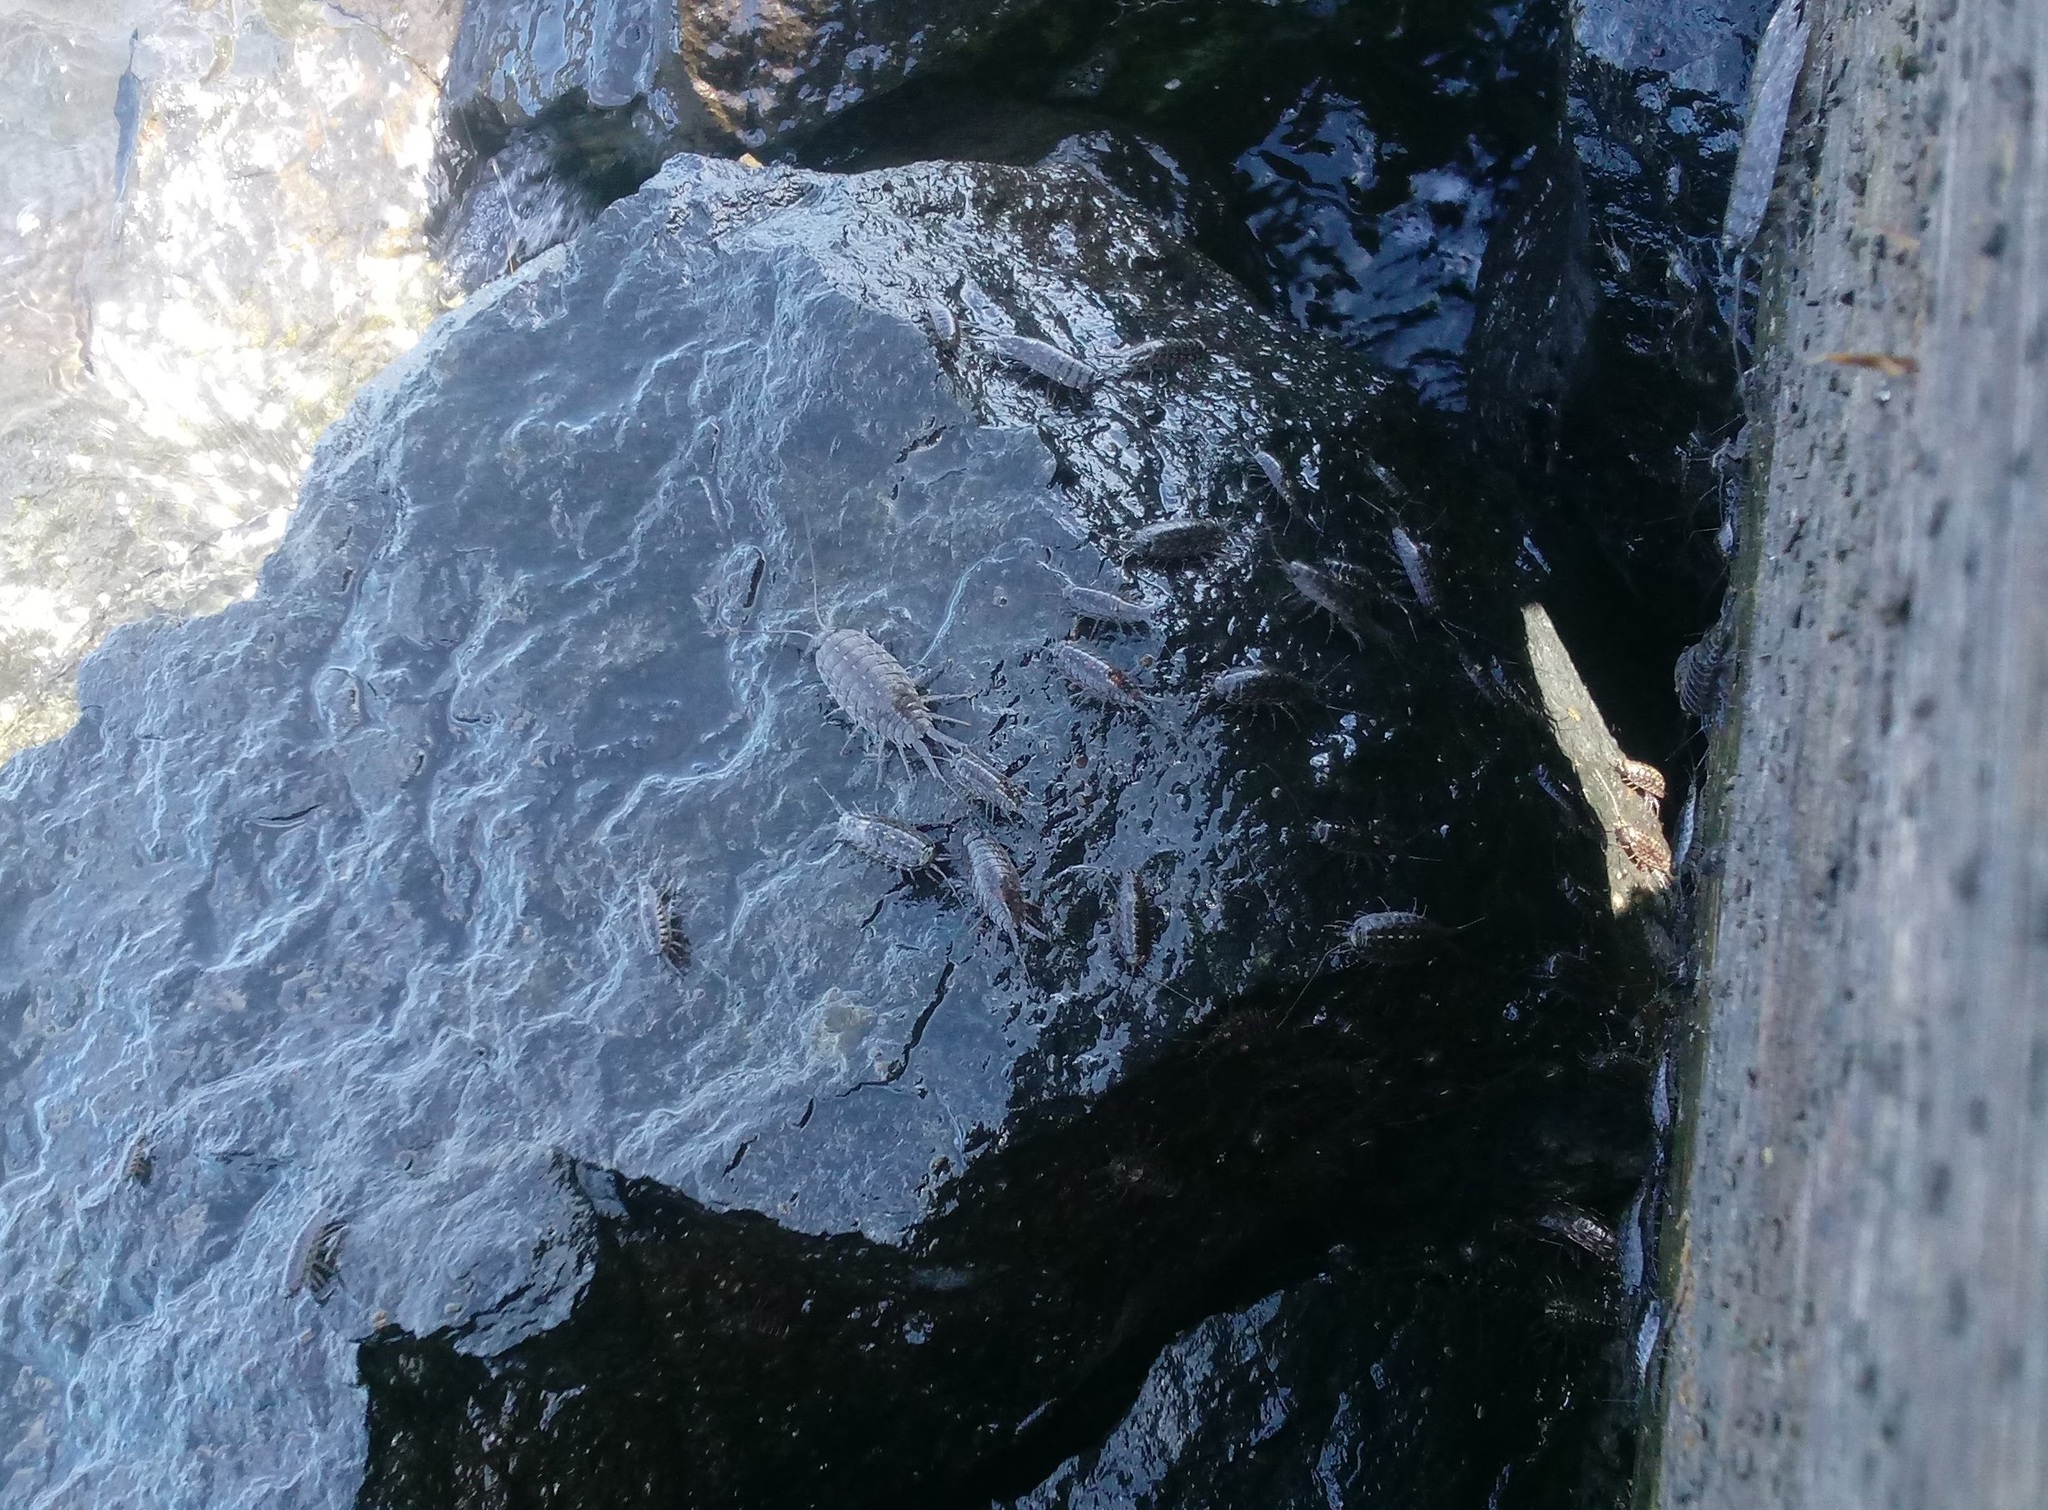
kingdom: Animalia
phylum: Arthropoda
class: Malacostraca
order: Isopoda
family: Ligiidae
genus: Ligia
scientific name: Ligia exotica
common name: Wharf roach
